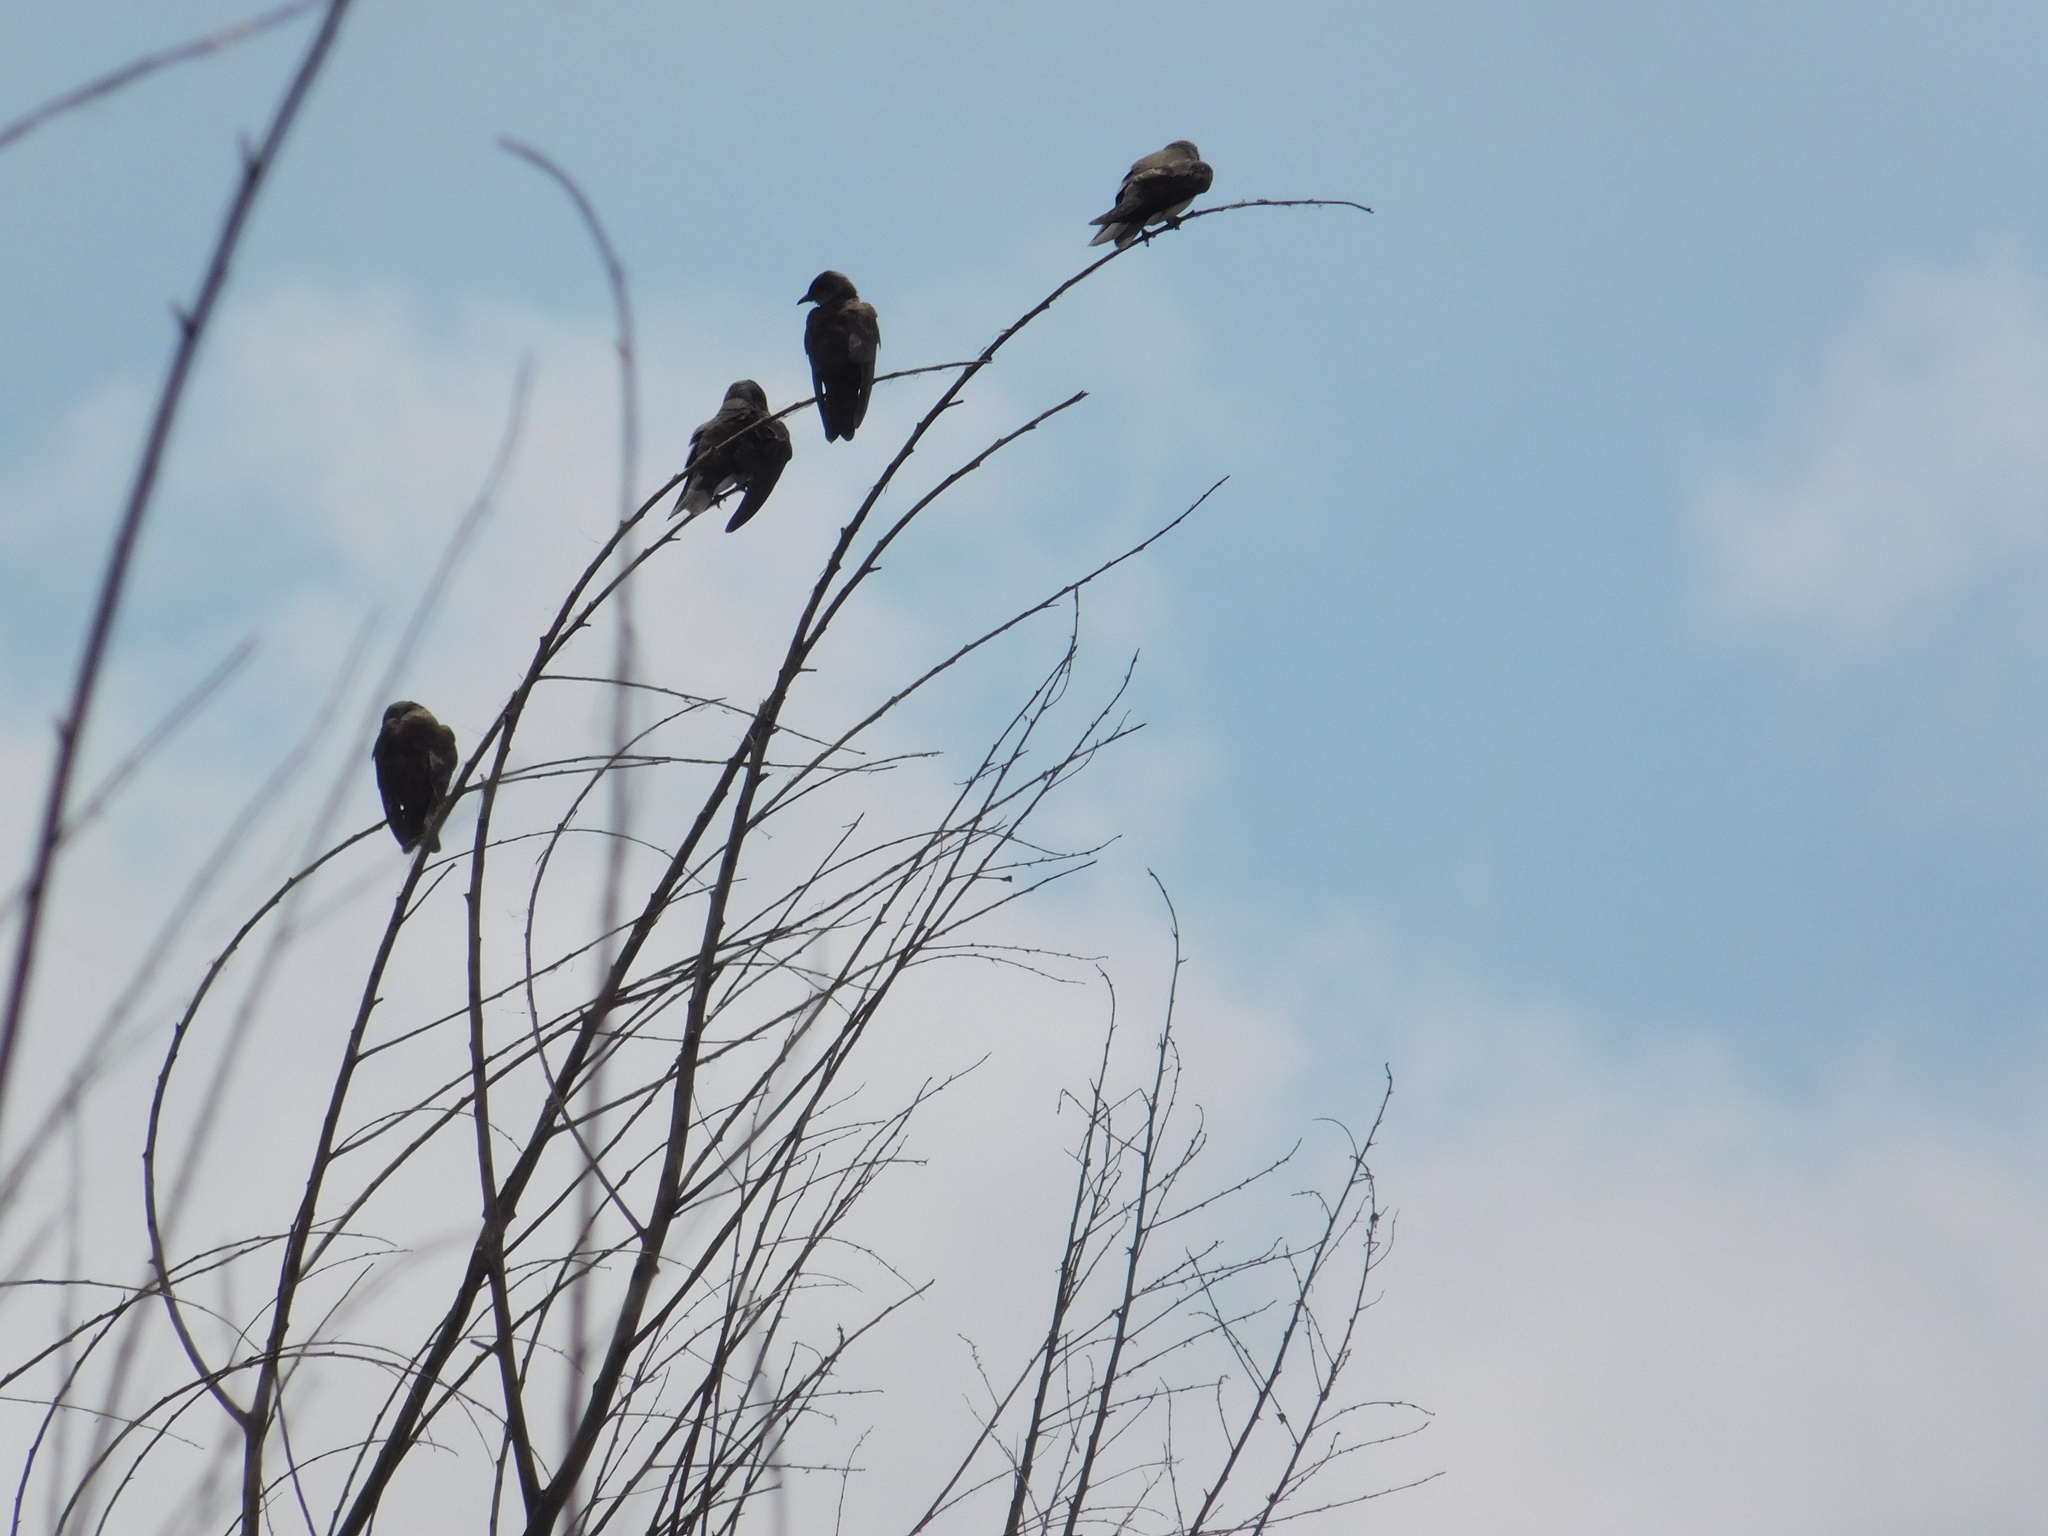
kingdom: Animalia
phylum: Chordata
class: Aves
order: Passeriformes
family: Hirundinidae
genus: Progne
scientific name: Progne tapera
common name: Brown-chested martin
